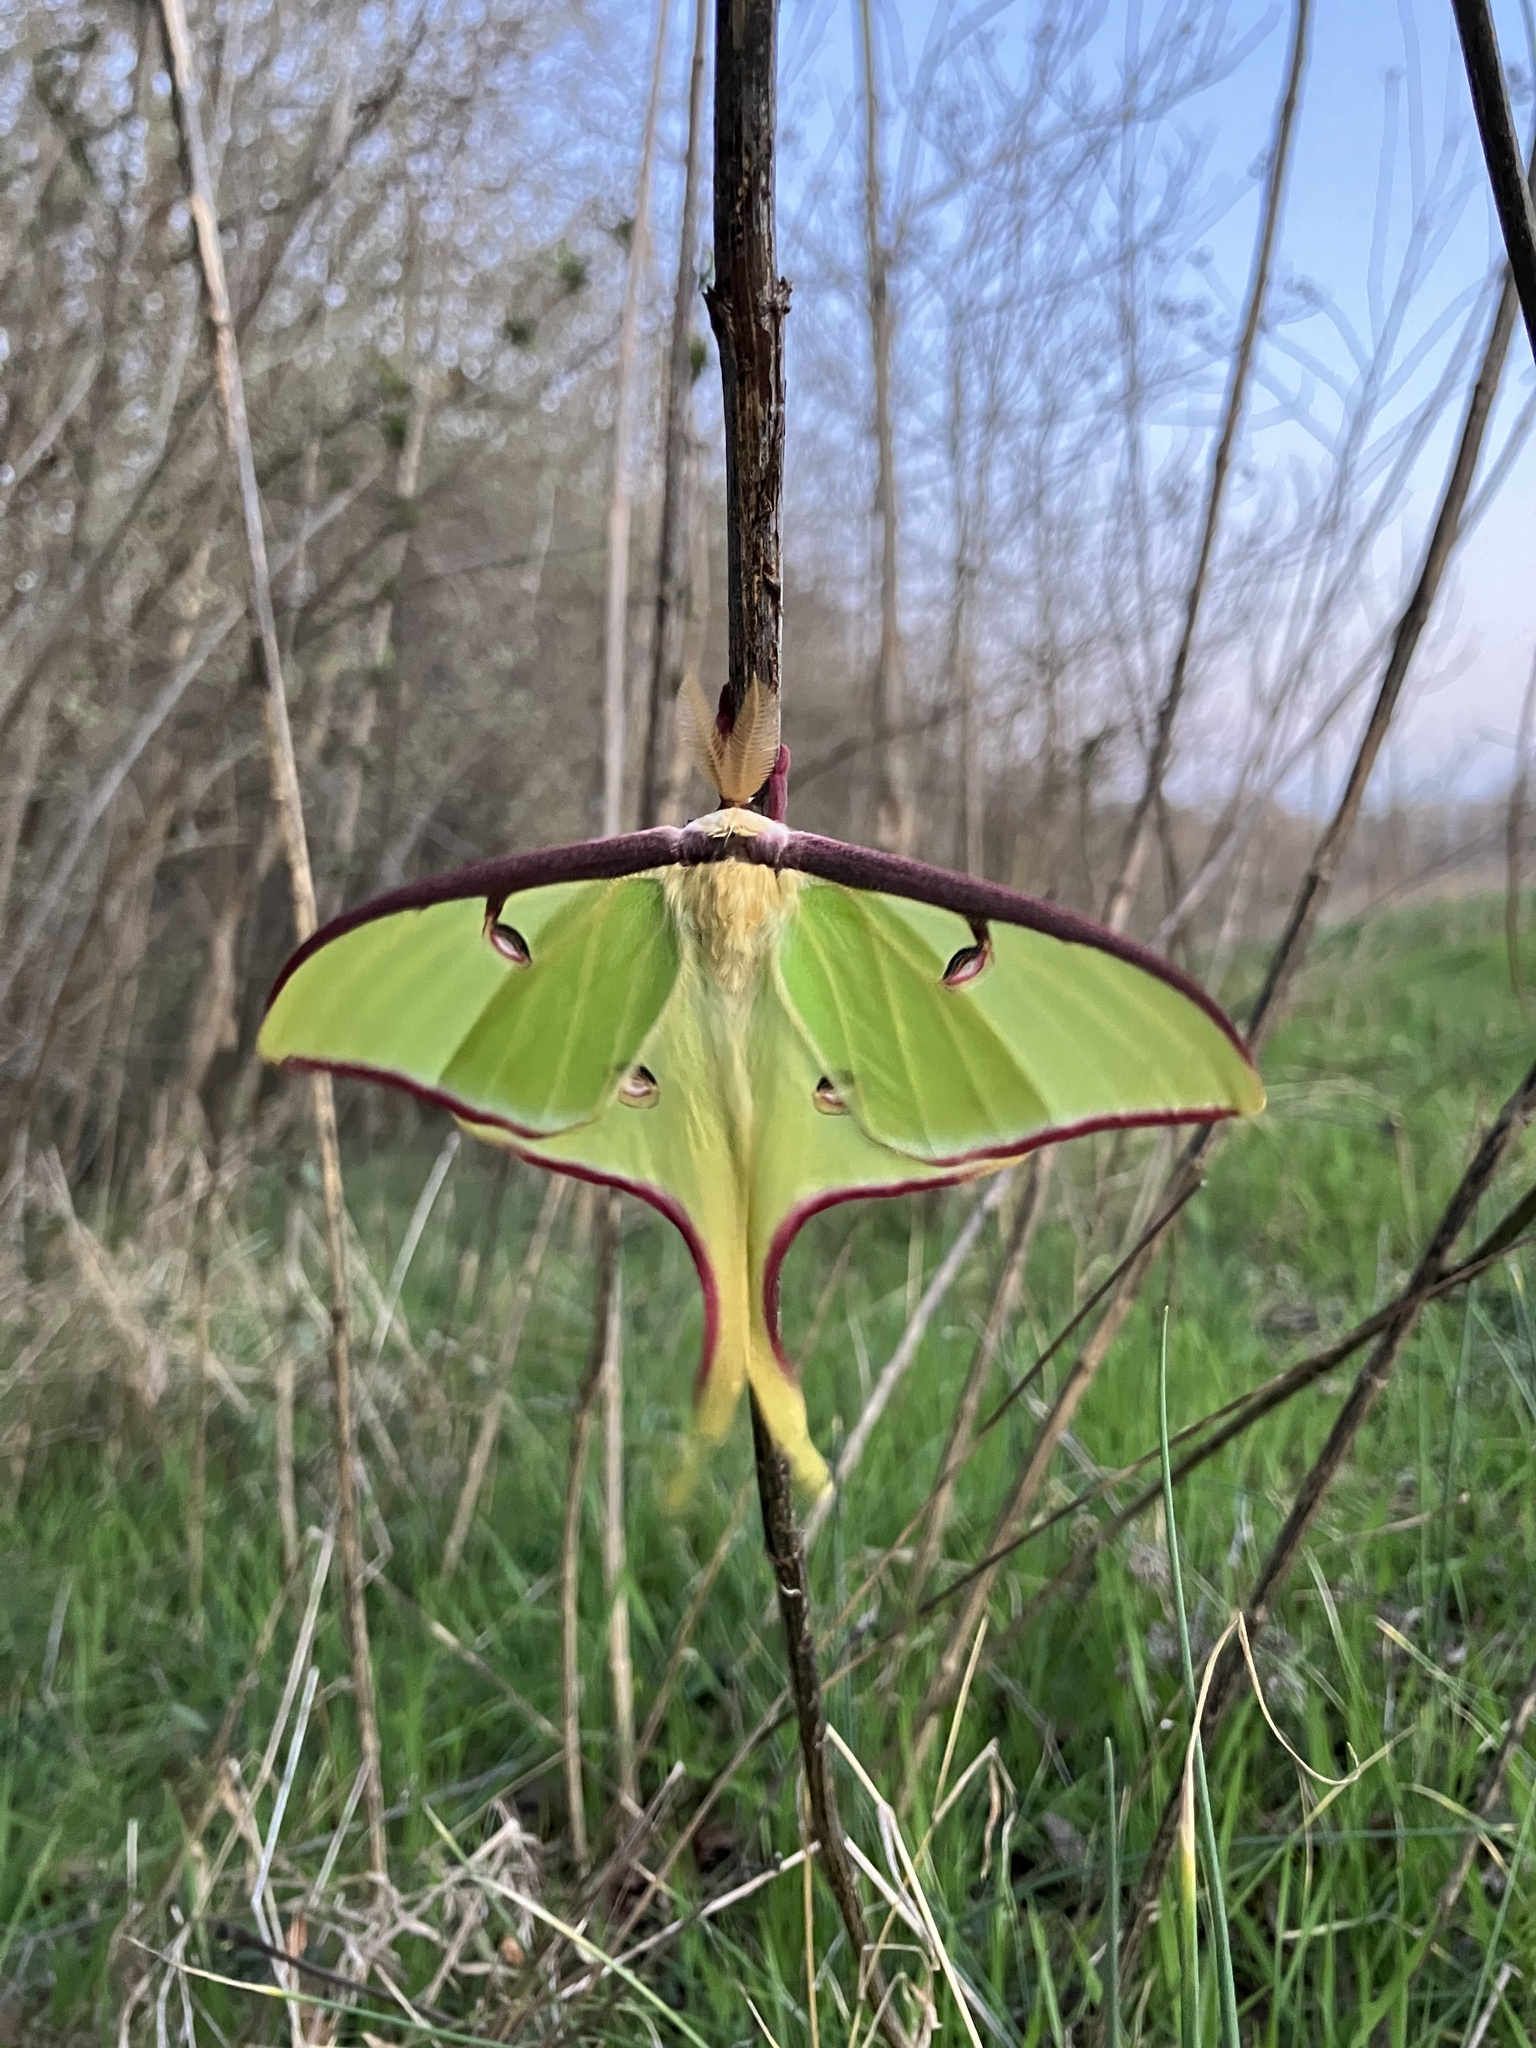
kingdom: Animalia
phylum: Arthropoda
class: Insecta
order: Lepidoptera
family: Saturniidae
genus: Actias
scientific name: Actias luna
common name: Luna moth
